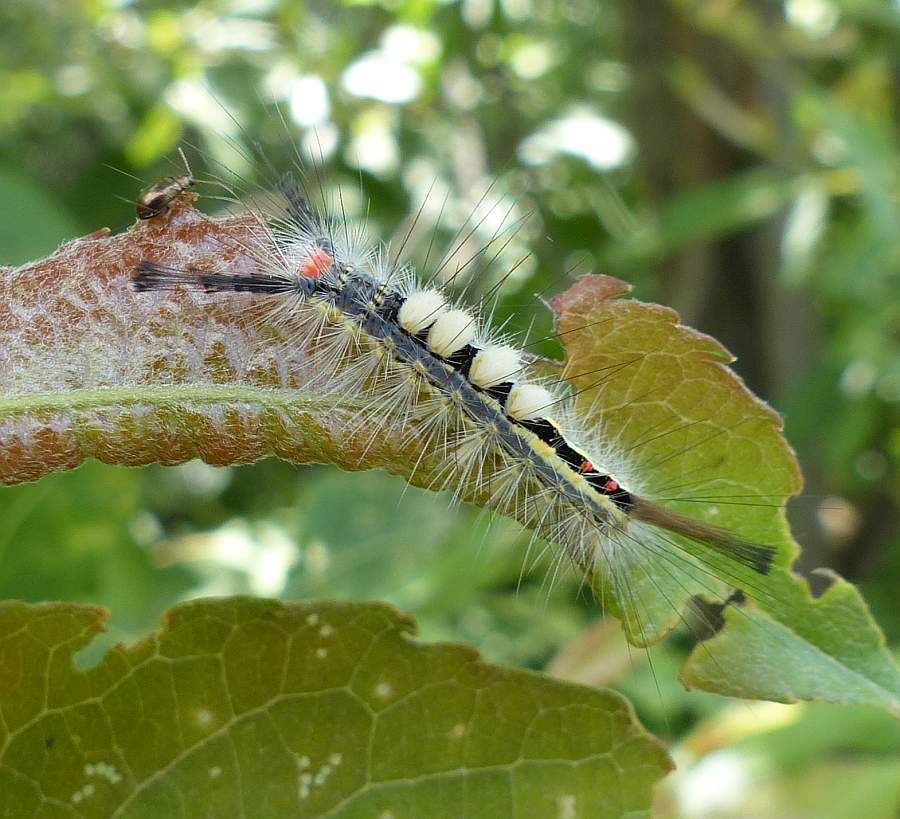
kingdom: Animalia
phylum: Arthropoda
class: Insecta
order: Lepidoptera
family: Erebidae
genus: Orgyia
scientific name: Orgyia leucostigma
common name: White-marked tussock moth
